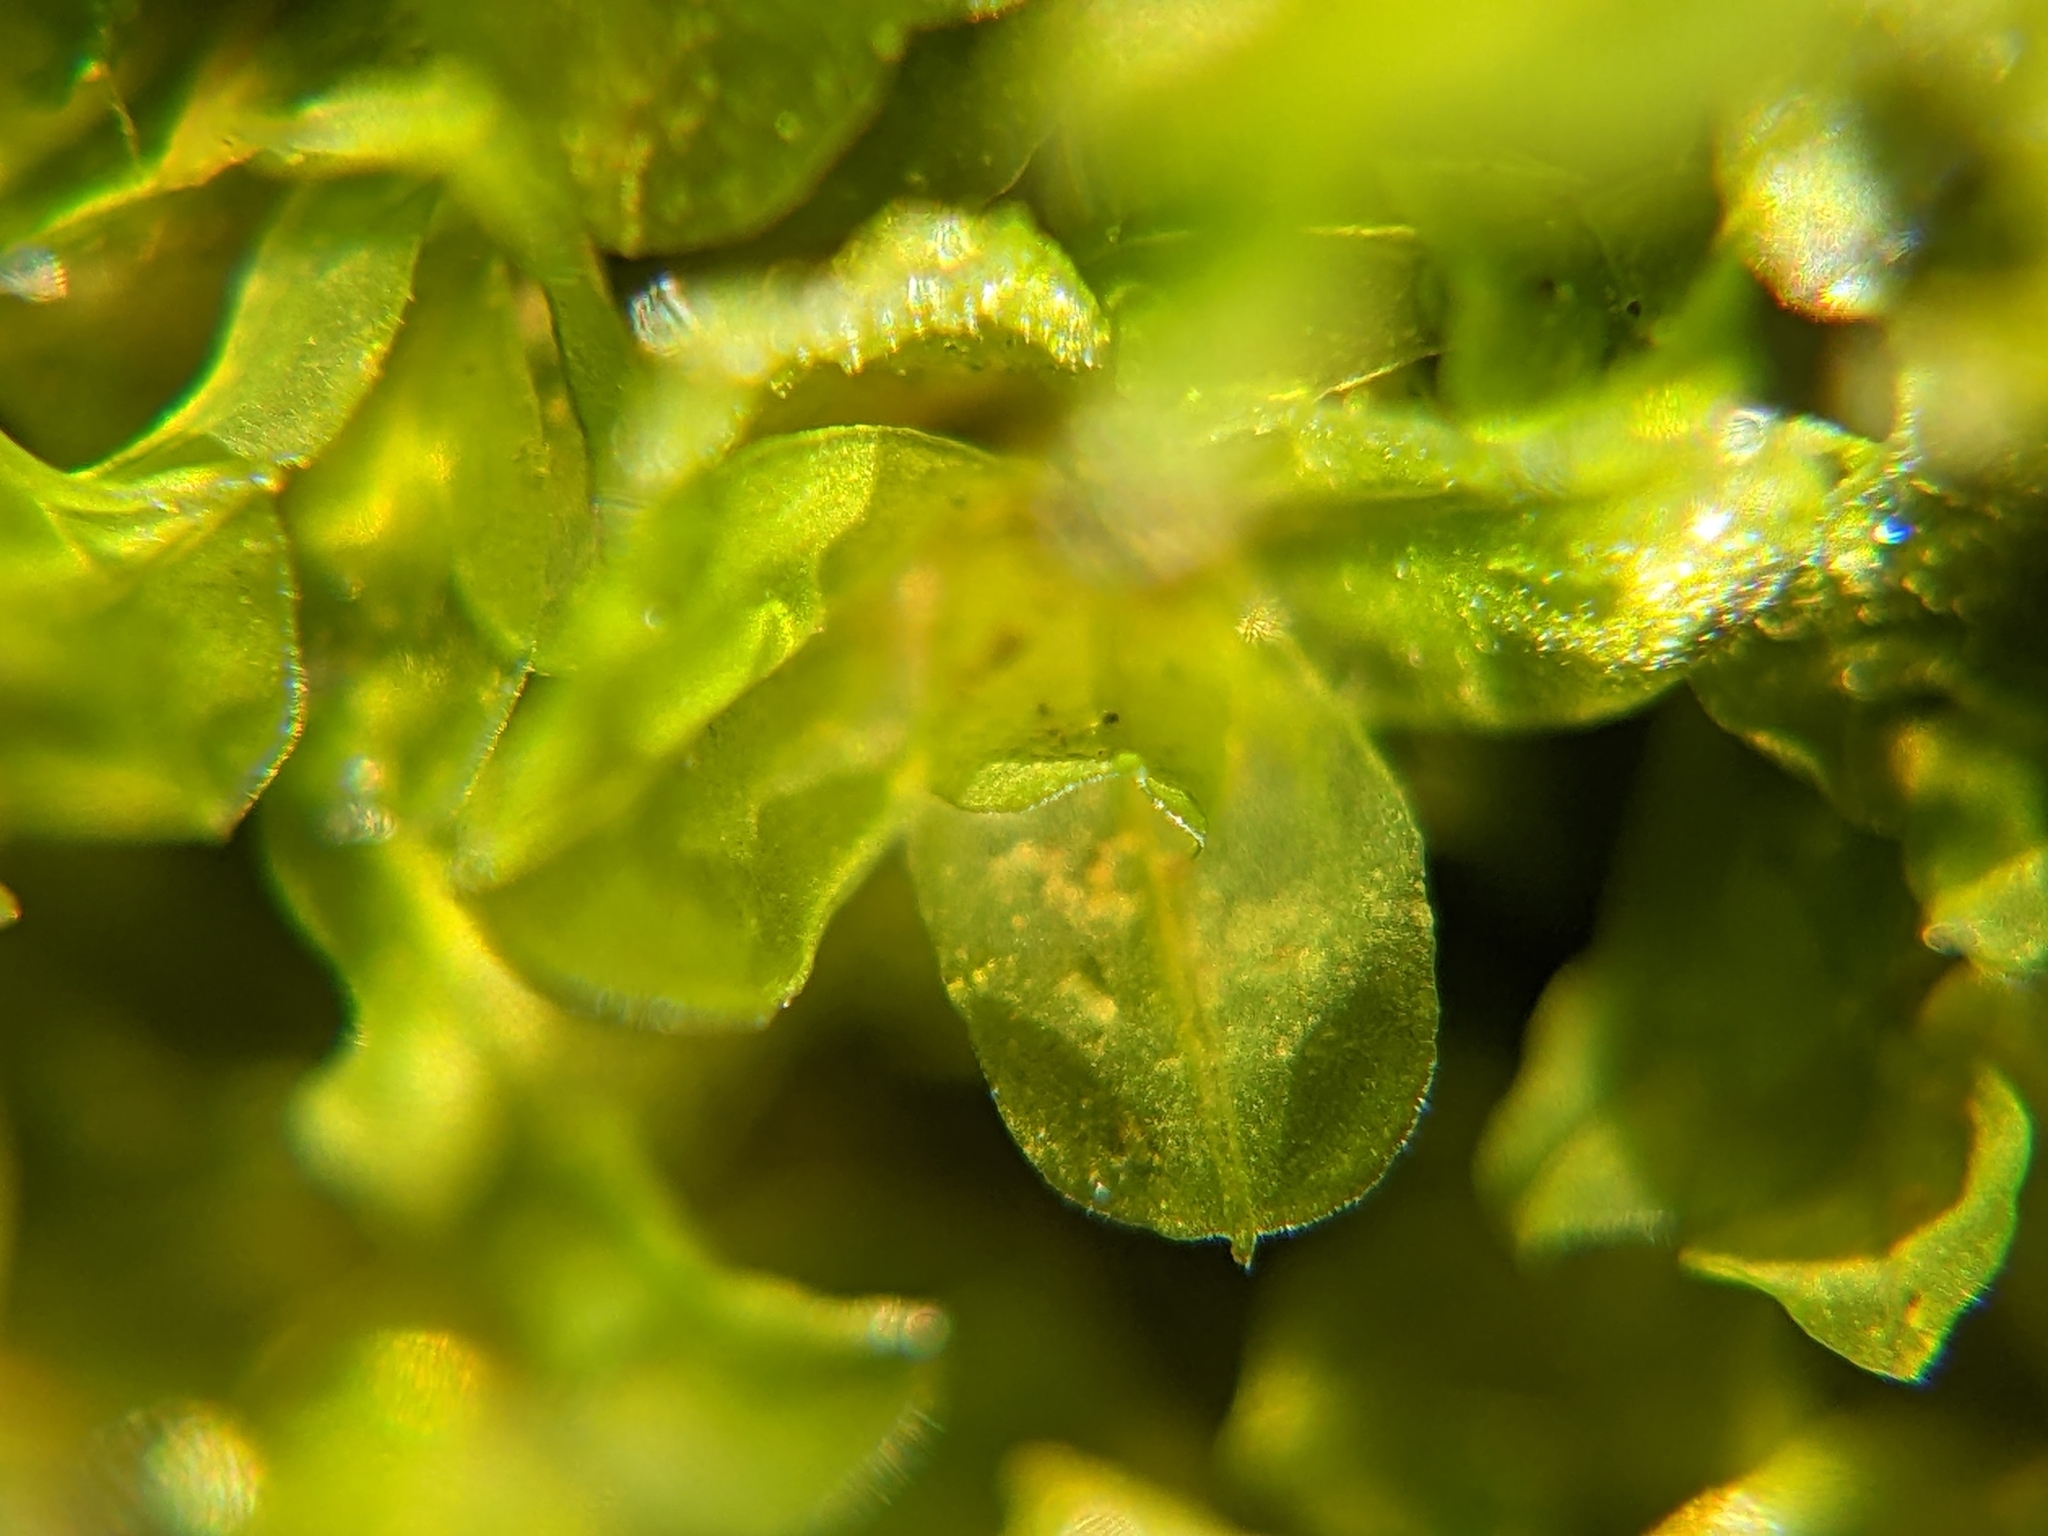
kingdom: Plantae
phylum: Bryophyta
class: Bryopsida
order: Pottiales
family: Pottiaceae
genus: Syntrichia
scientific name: Syntrichia latifolia
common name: Water screw-moss
